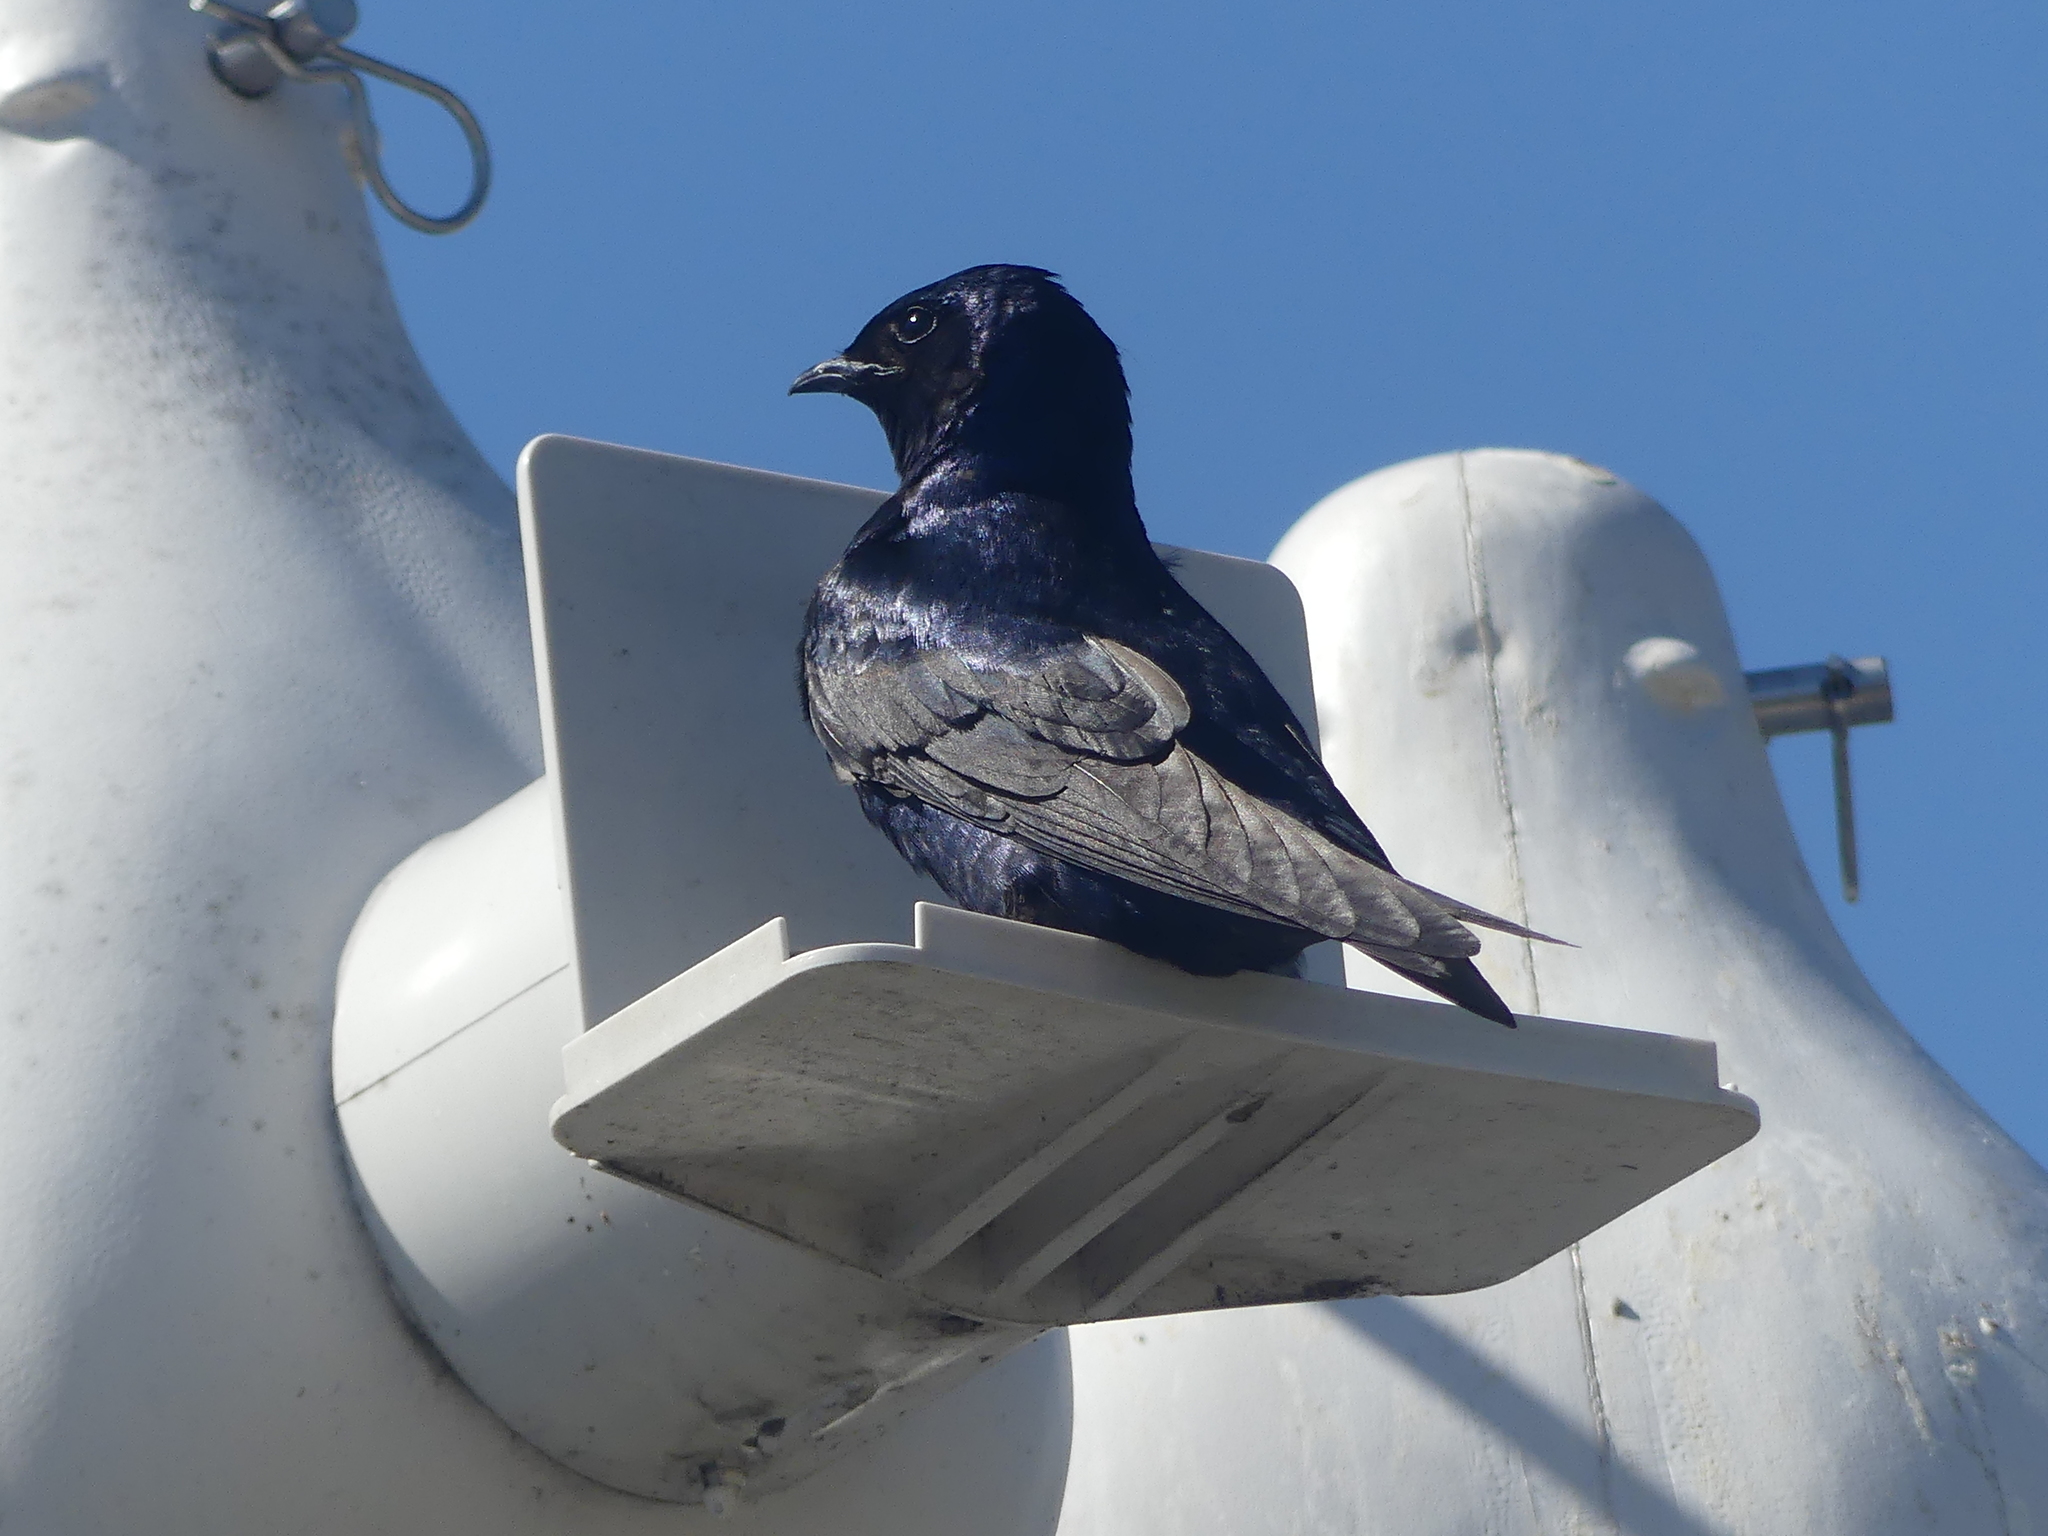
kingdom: Animalia
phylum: Chordata
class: Aves
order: Passeriformes
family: Hirundinidae
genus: Progne
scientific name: Progne subis
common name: Purple martin
